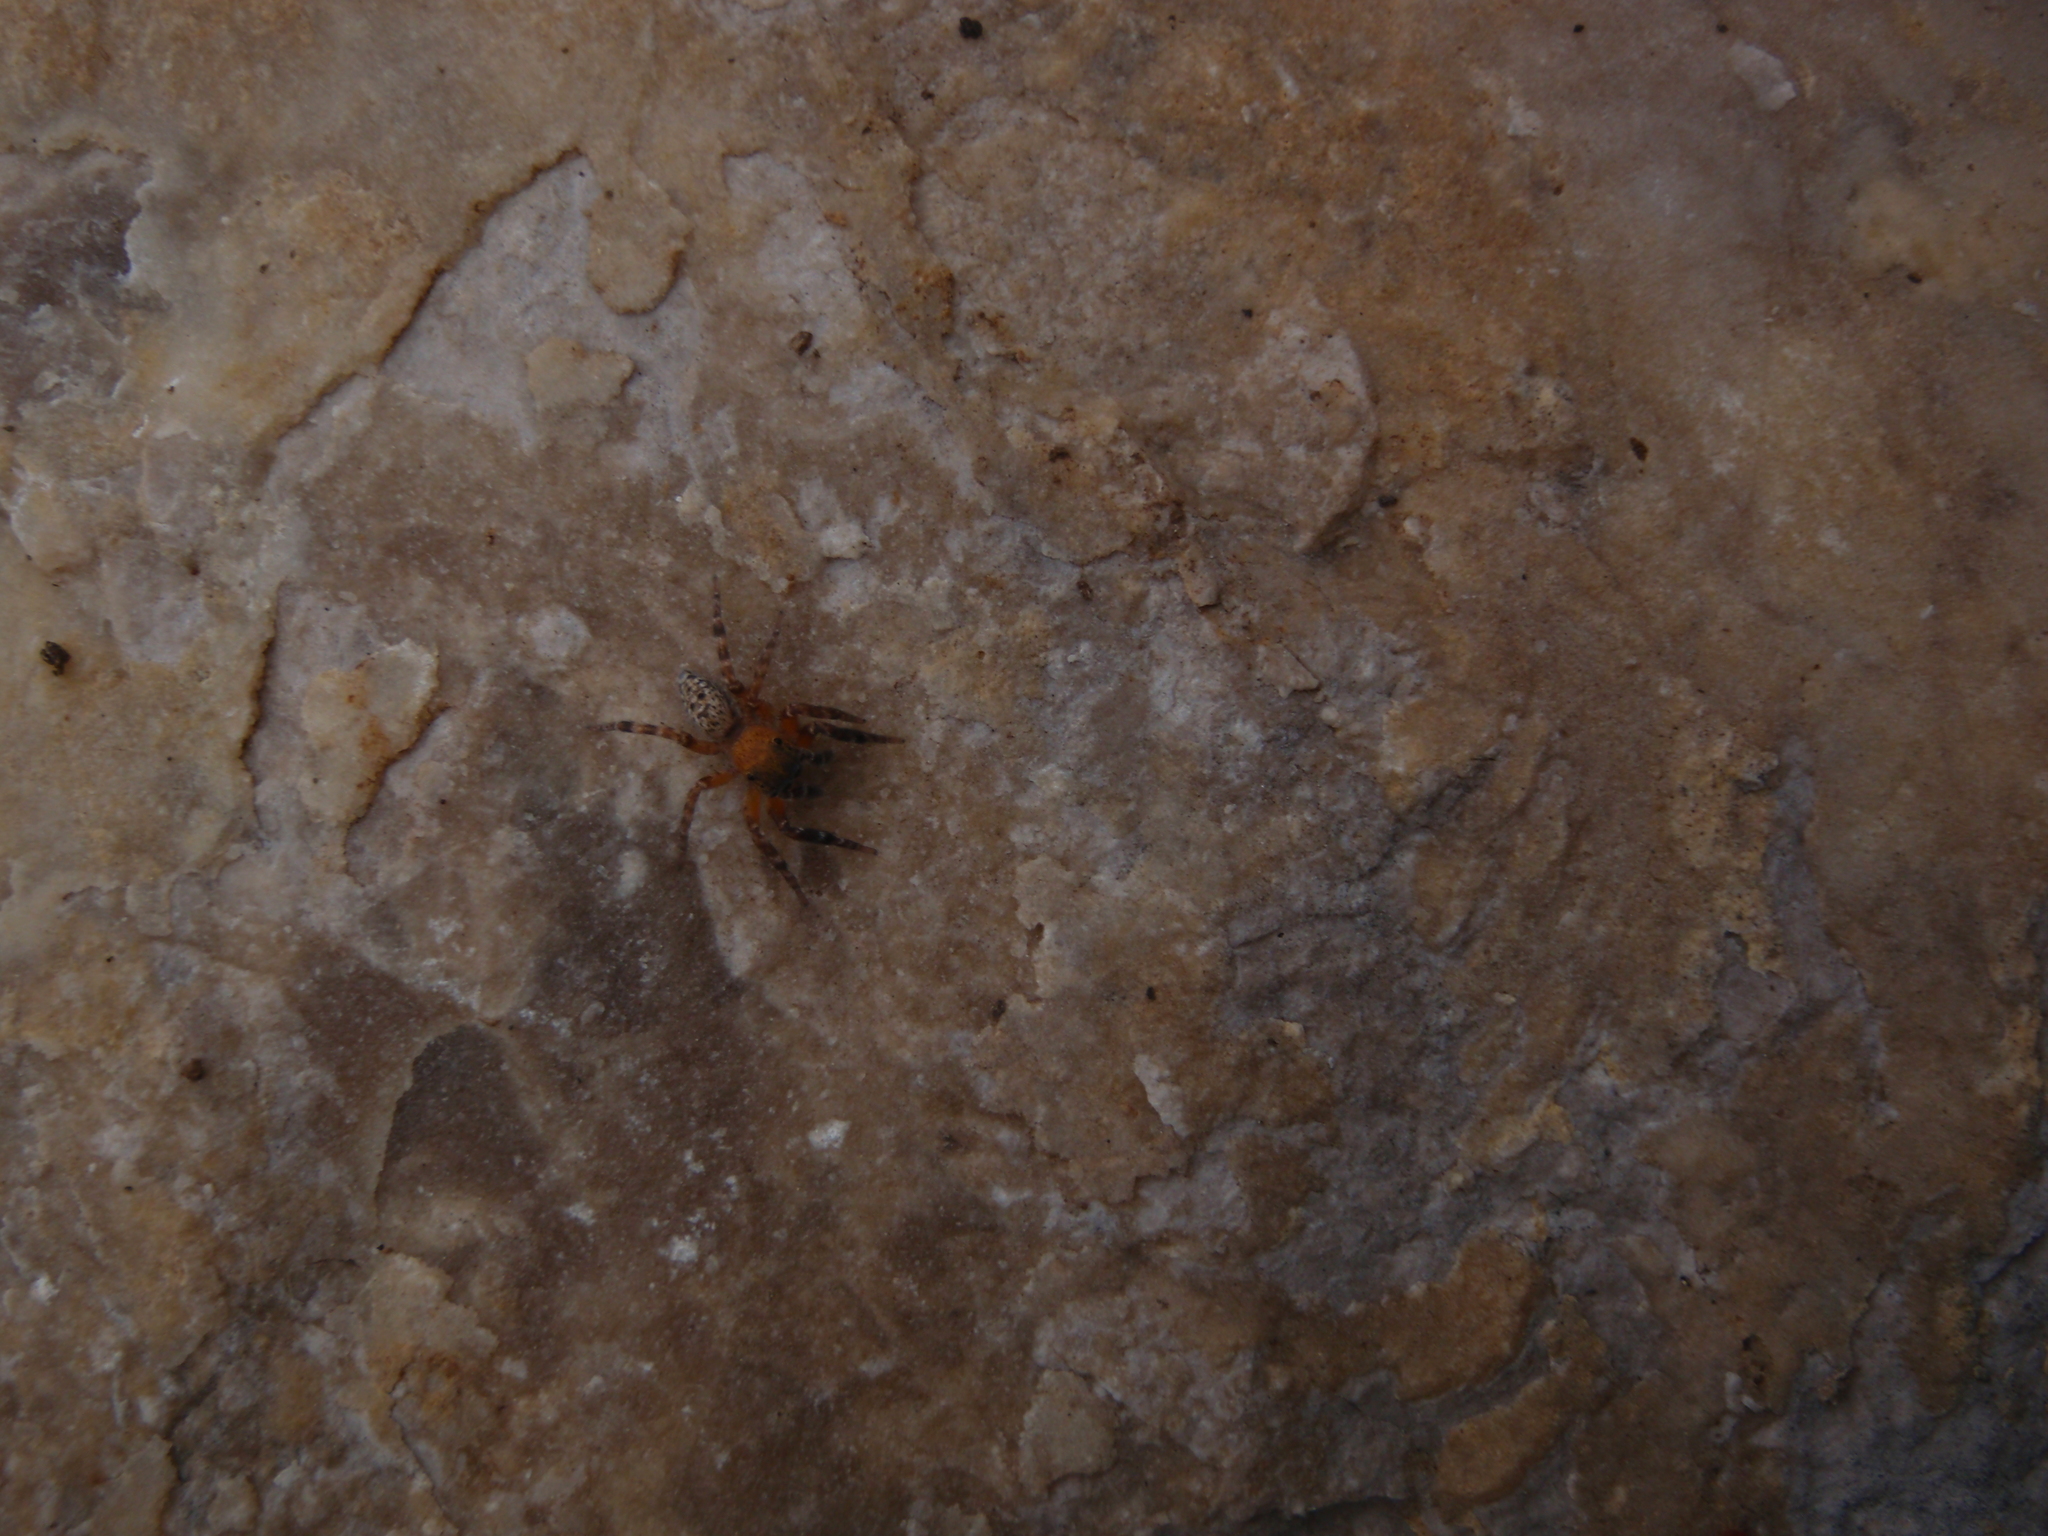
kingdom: Animalia
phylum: Arthropoda
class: Arachnida
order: Araneae
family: Salticidae
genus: Cyrba
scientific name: Cyrba algerina
